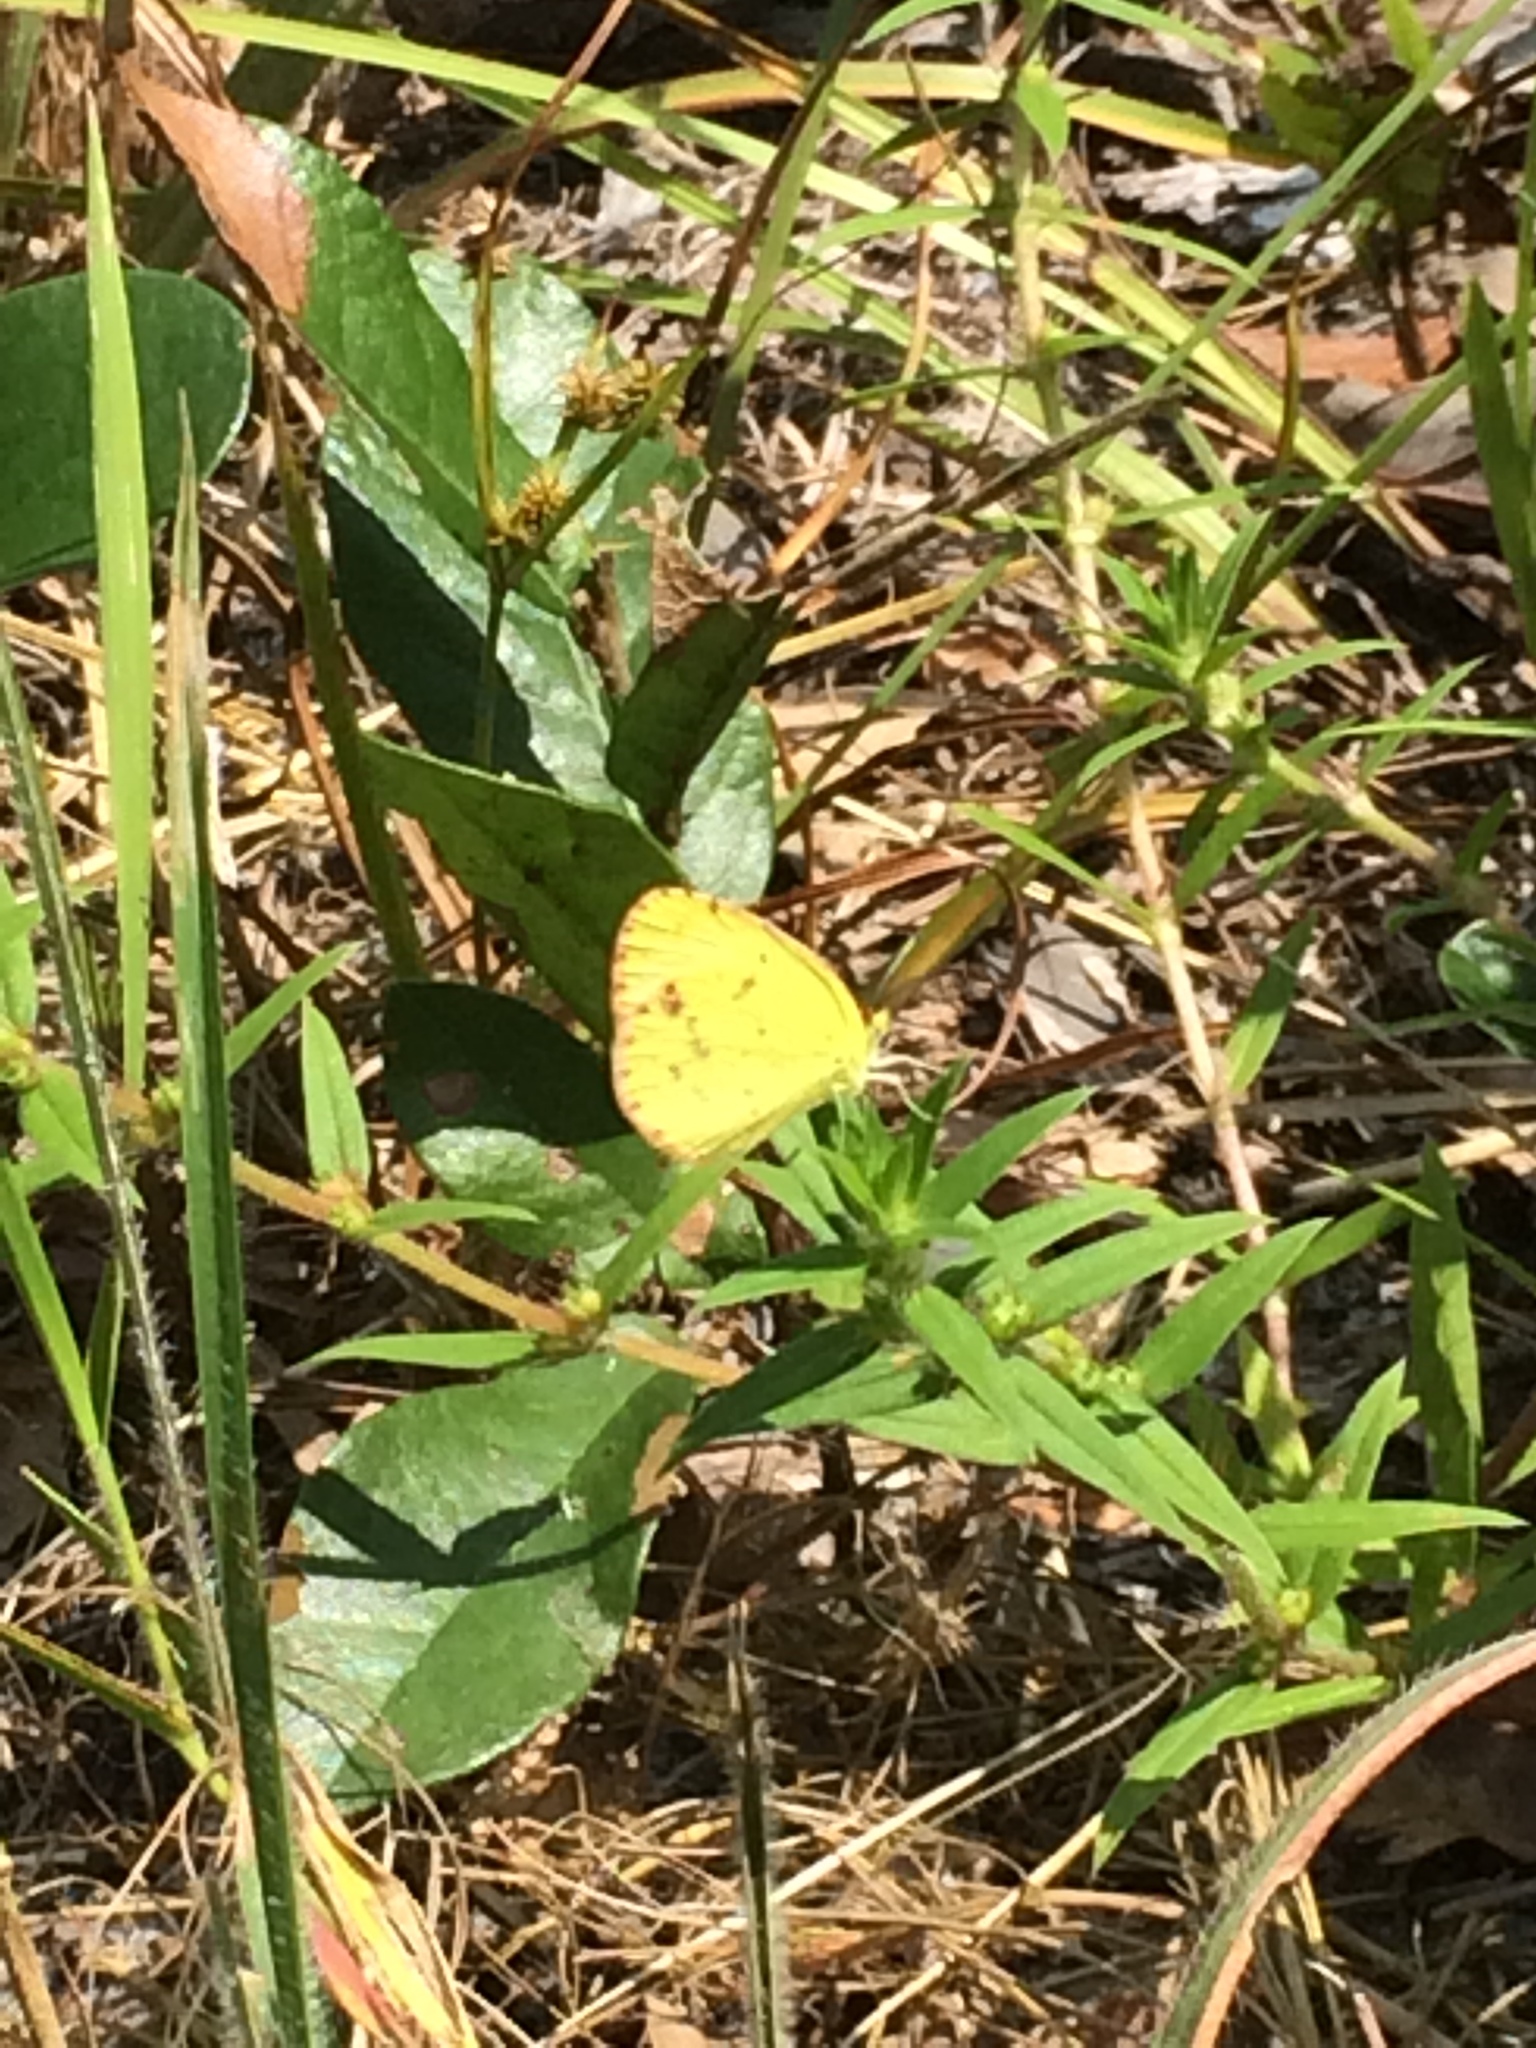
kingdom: Animalia
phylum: Arthropoda
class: Insecta
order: Lepidoptera
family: Pieridae
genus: Pyrisitia
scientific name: Pyrisitia lisa
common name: Little yellow
